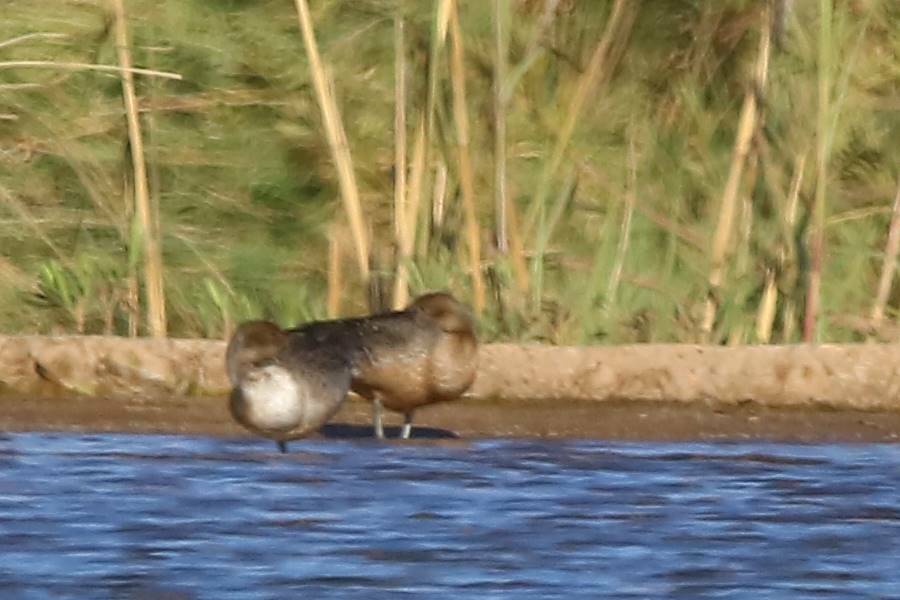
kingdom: Animalia
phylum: Chordata
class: Aves
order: Anseriformes
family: Anatidae
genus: Anas
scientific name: Anas acuta
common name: Northern pintail
